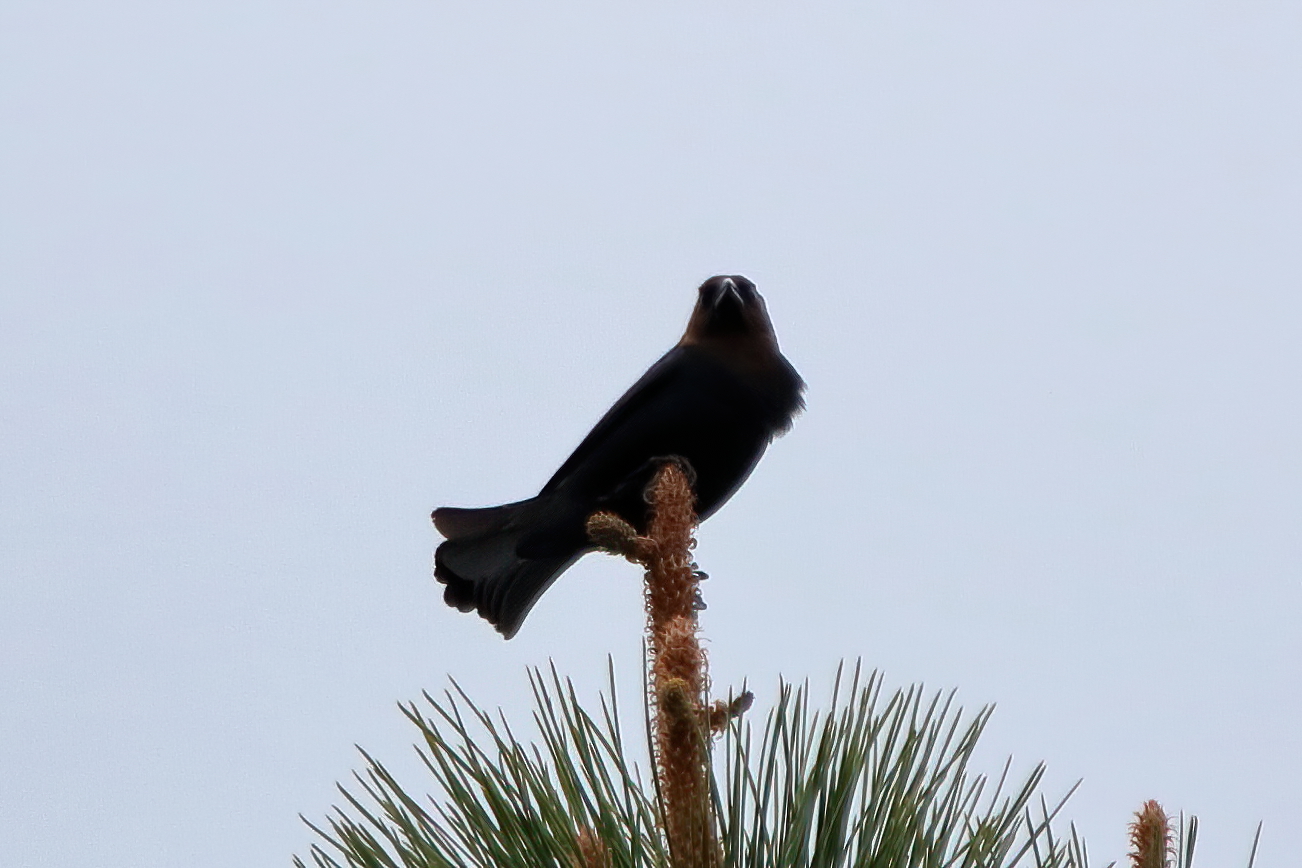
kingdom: Animalia
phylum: Chordata
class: Aves
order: Passeriformes
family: Icteridae
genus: Molothrus
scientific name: Molothrus ater
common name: Brown-headed cowbird
